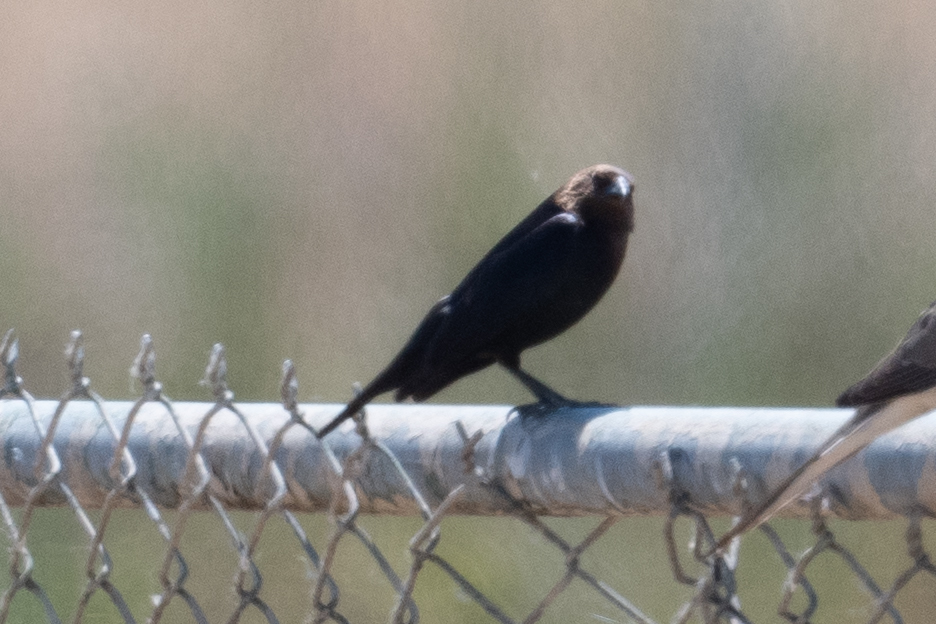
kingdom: Animalia
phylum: Chordata
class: Aves
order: Passeriformes
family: Icteridae
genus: Molothrus
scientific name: Molothrus ater
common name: Brown-headed cowbird
